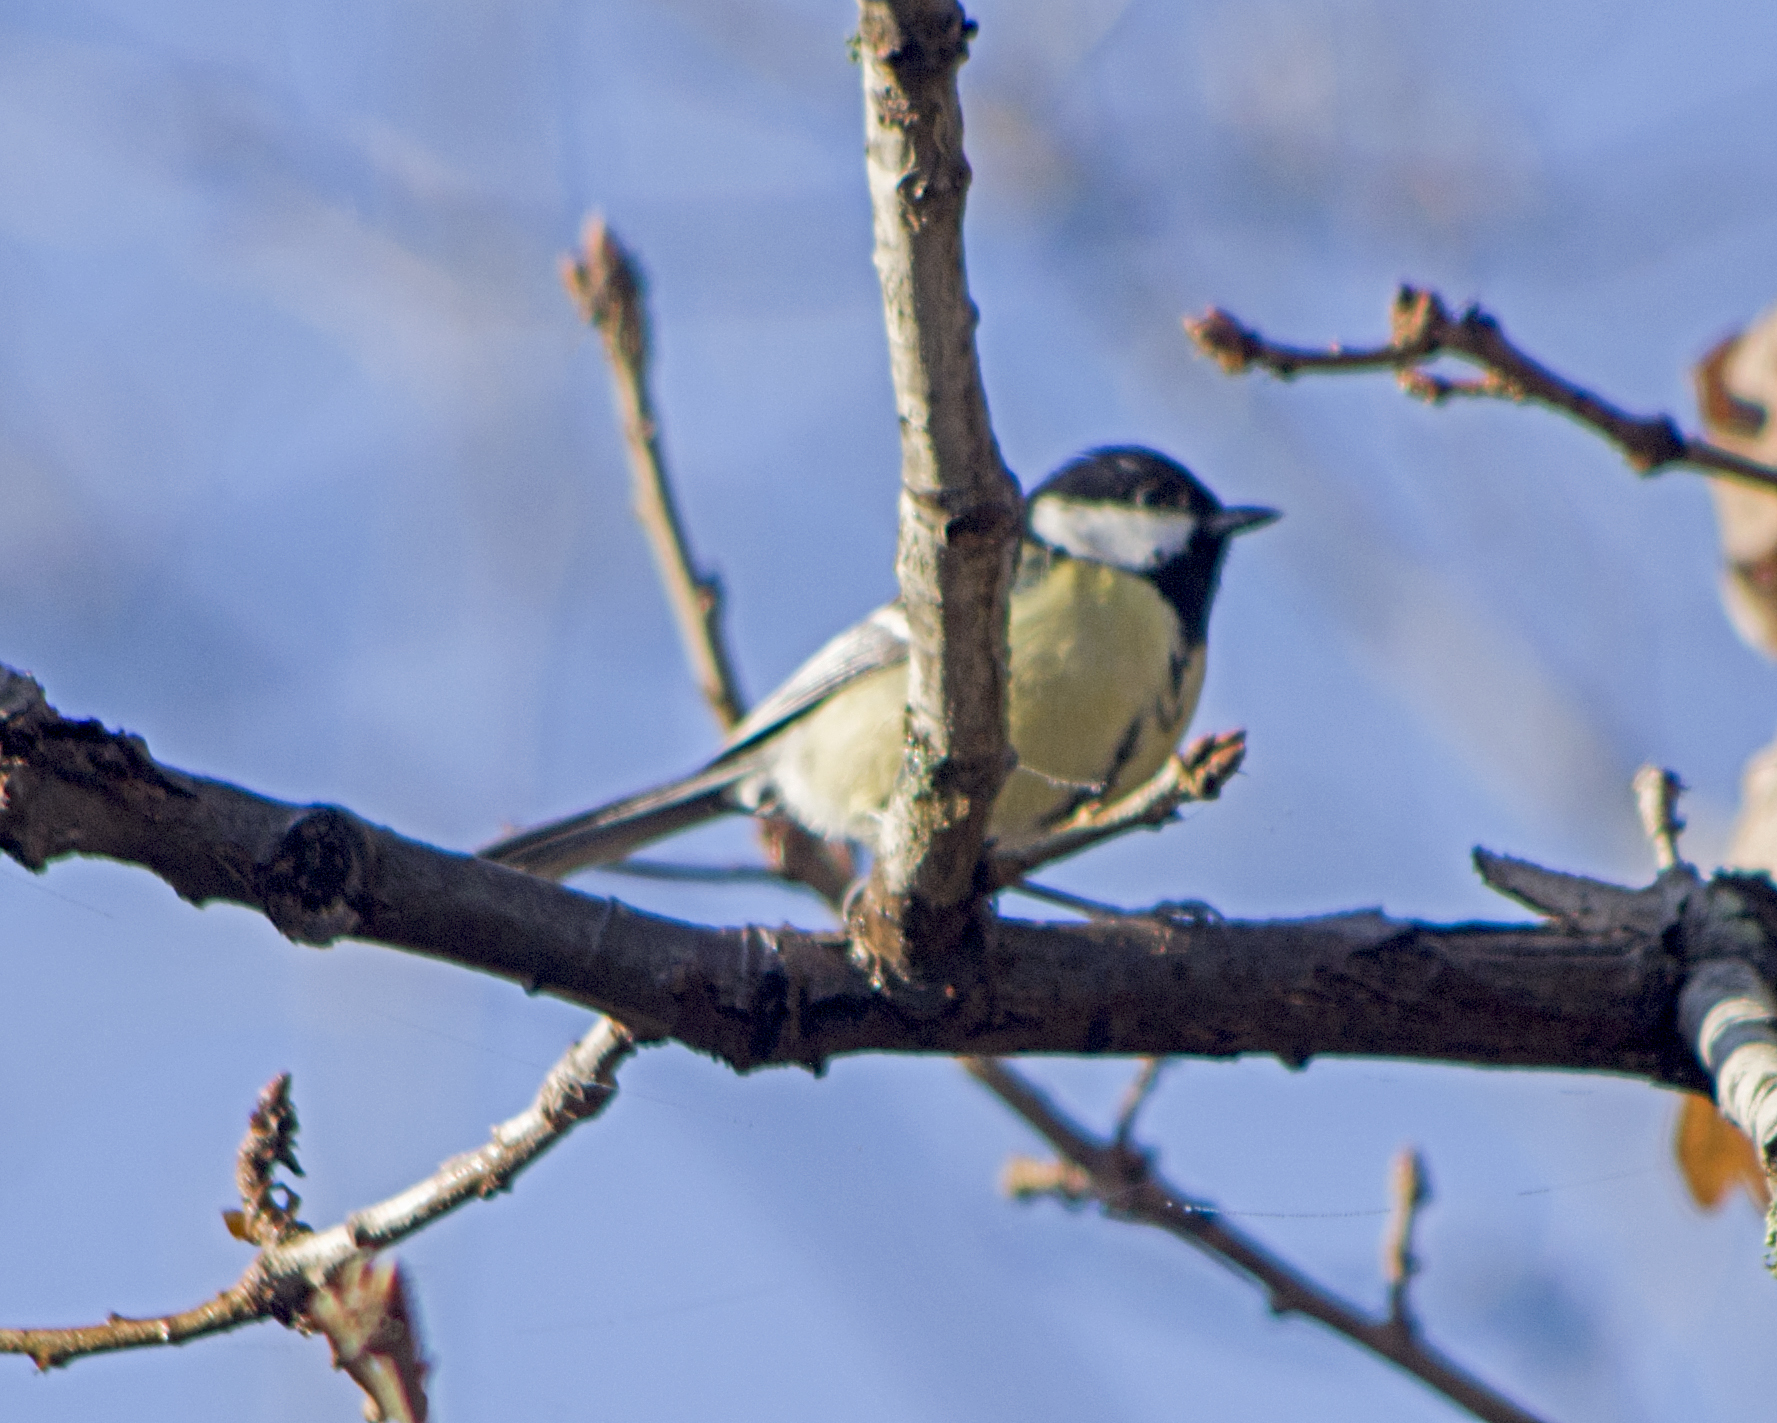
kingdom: Animalia
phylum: Chordata
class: Aves
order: Passeriformes
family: Paridae
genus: Parus
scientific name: Parus major
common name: Great tit
